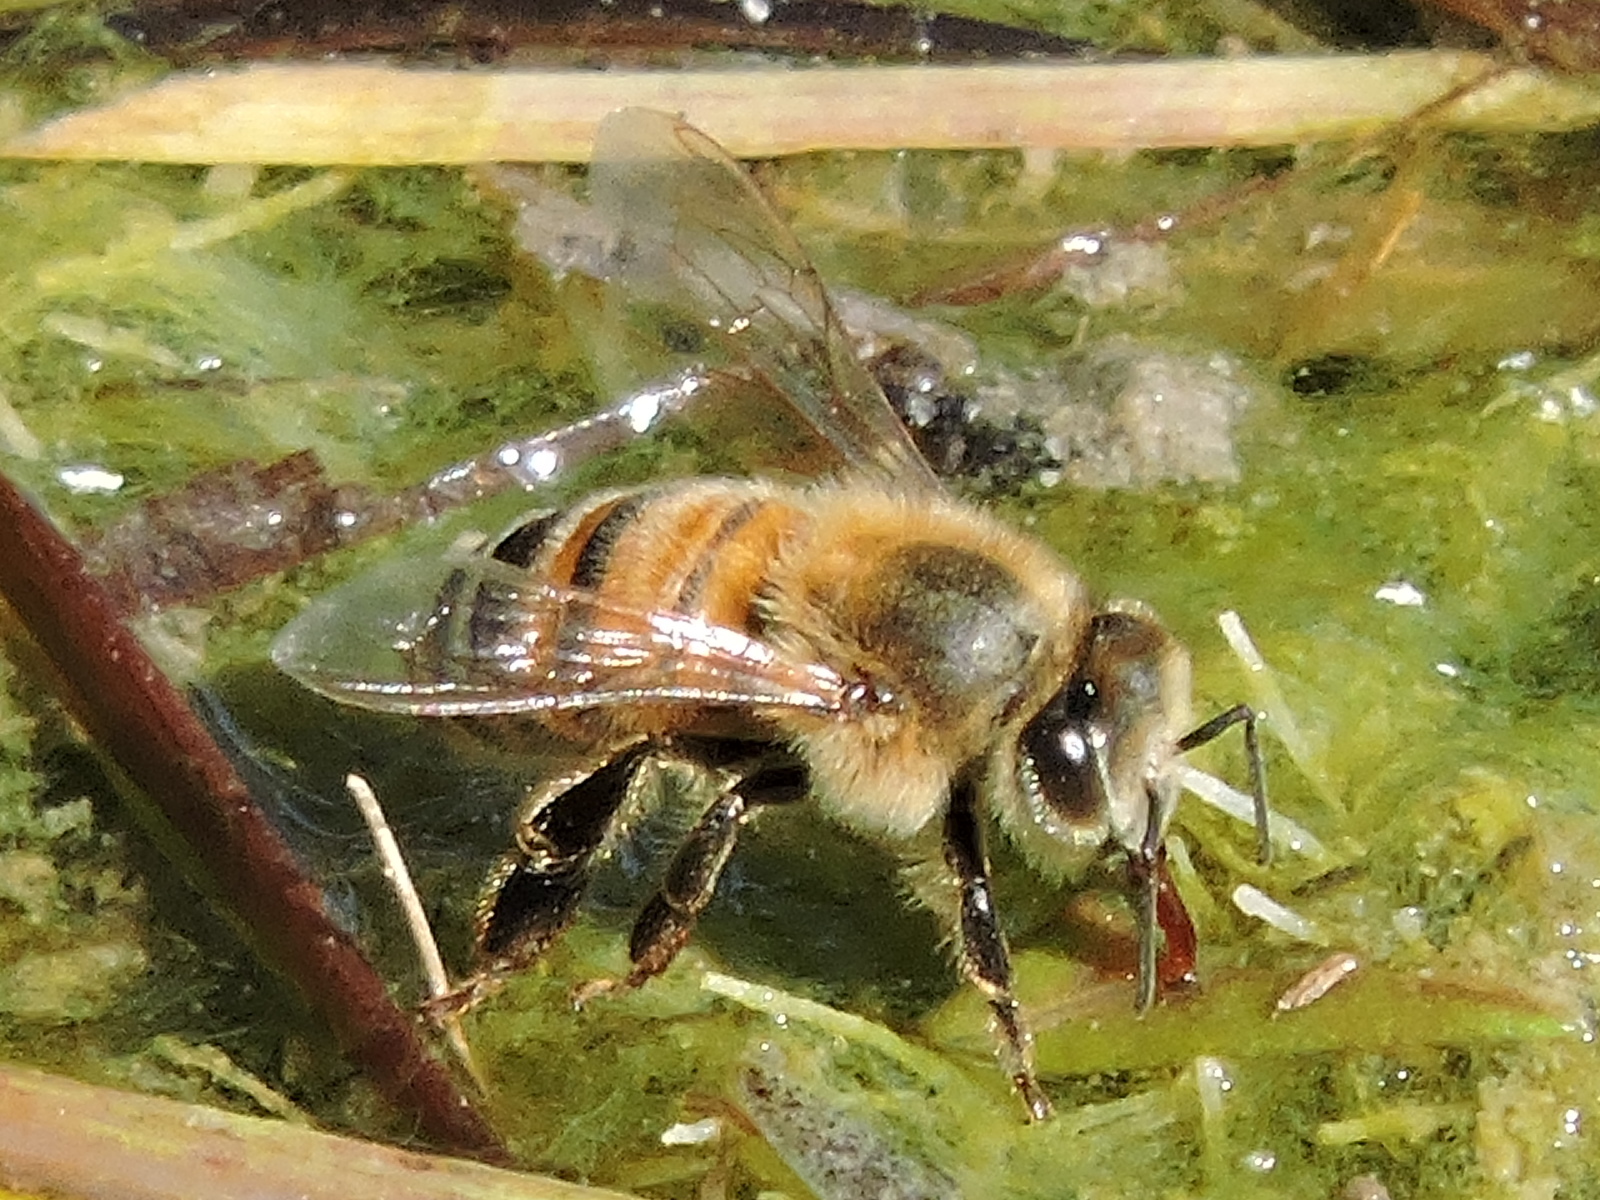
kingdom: Animalia
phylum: Arthropoda
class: Insecta
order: Hymenoptera
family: Apidae
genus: Apis
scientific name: Apis mellifera
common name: Honey bee
